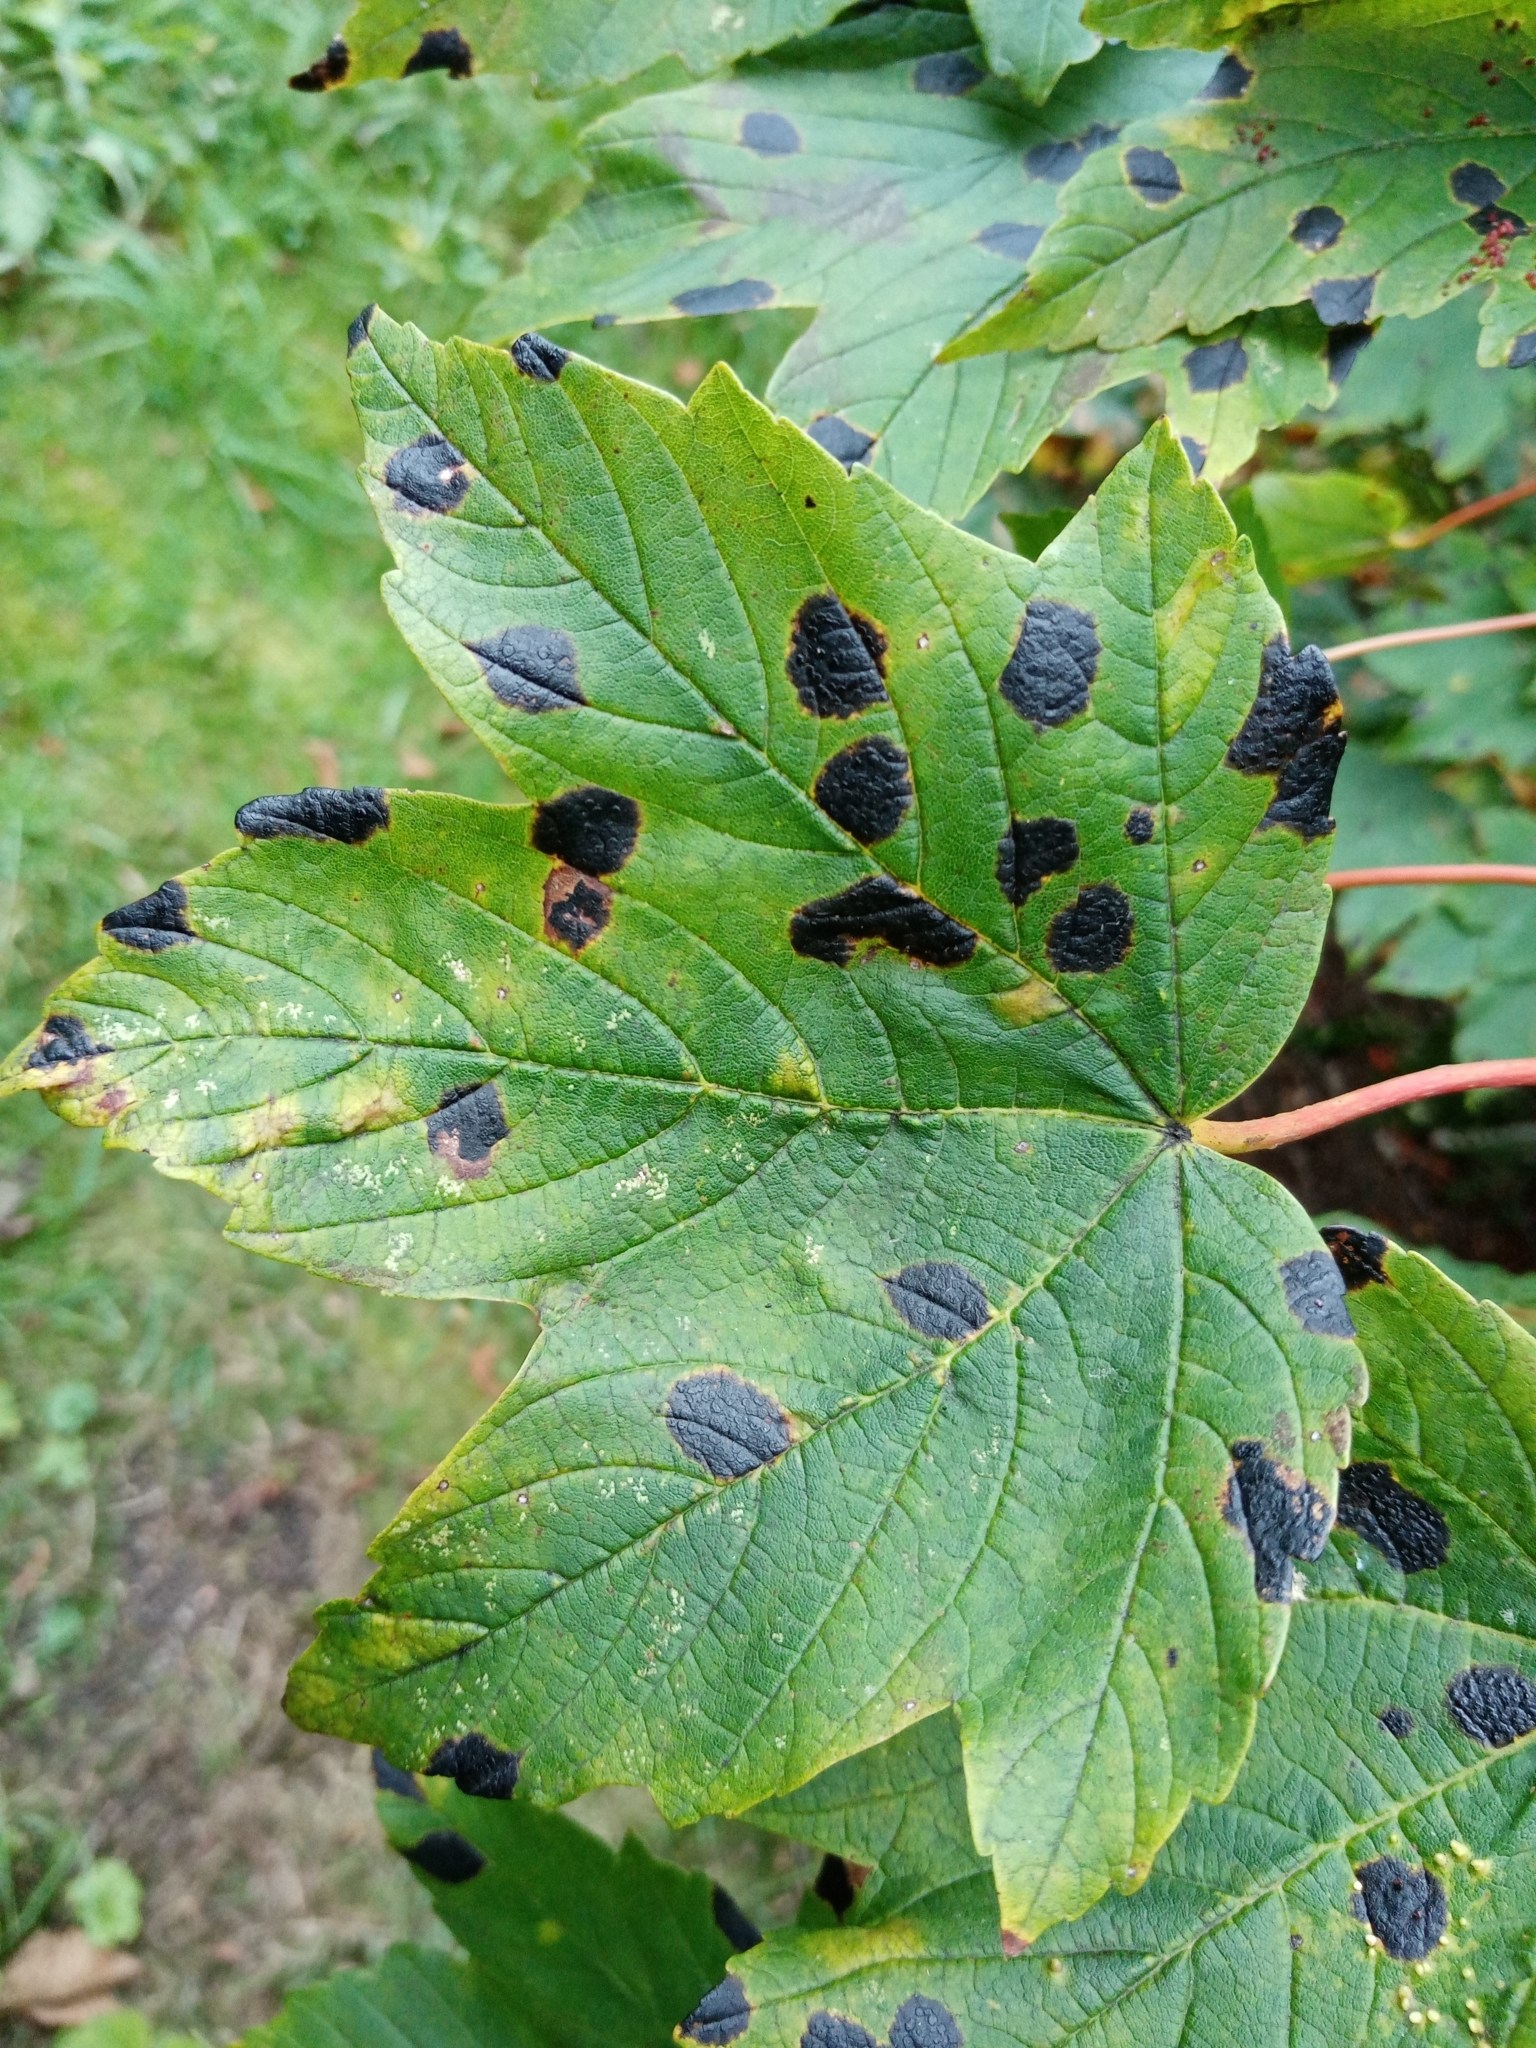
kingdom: Fungi
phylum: Ascomycota
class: Leotiomycetes
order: Rhytismatales
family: Rhytismataceae
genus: Rhytisma
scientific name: Rhytisma acerinum
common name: European tar spot
